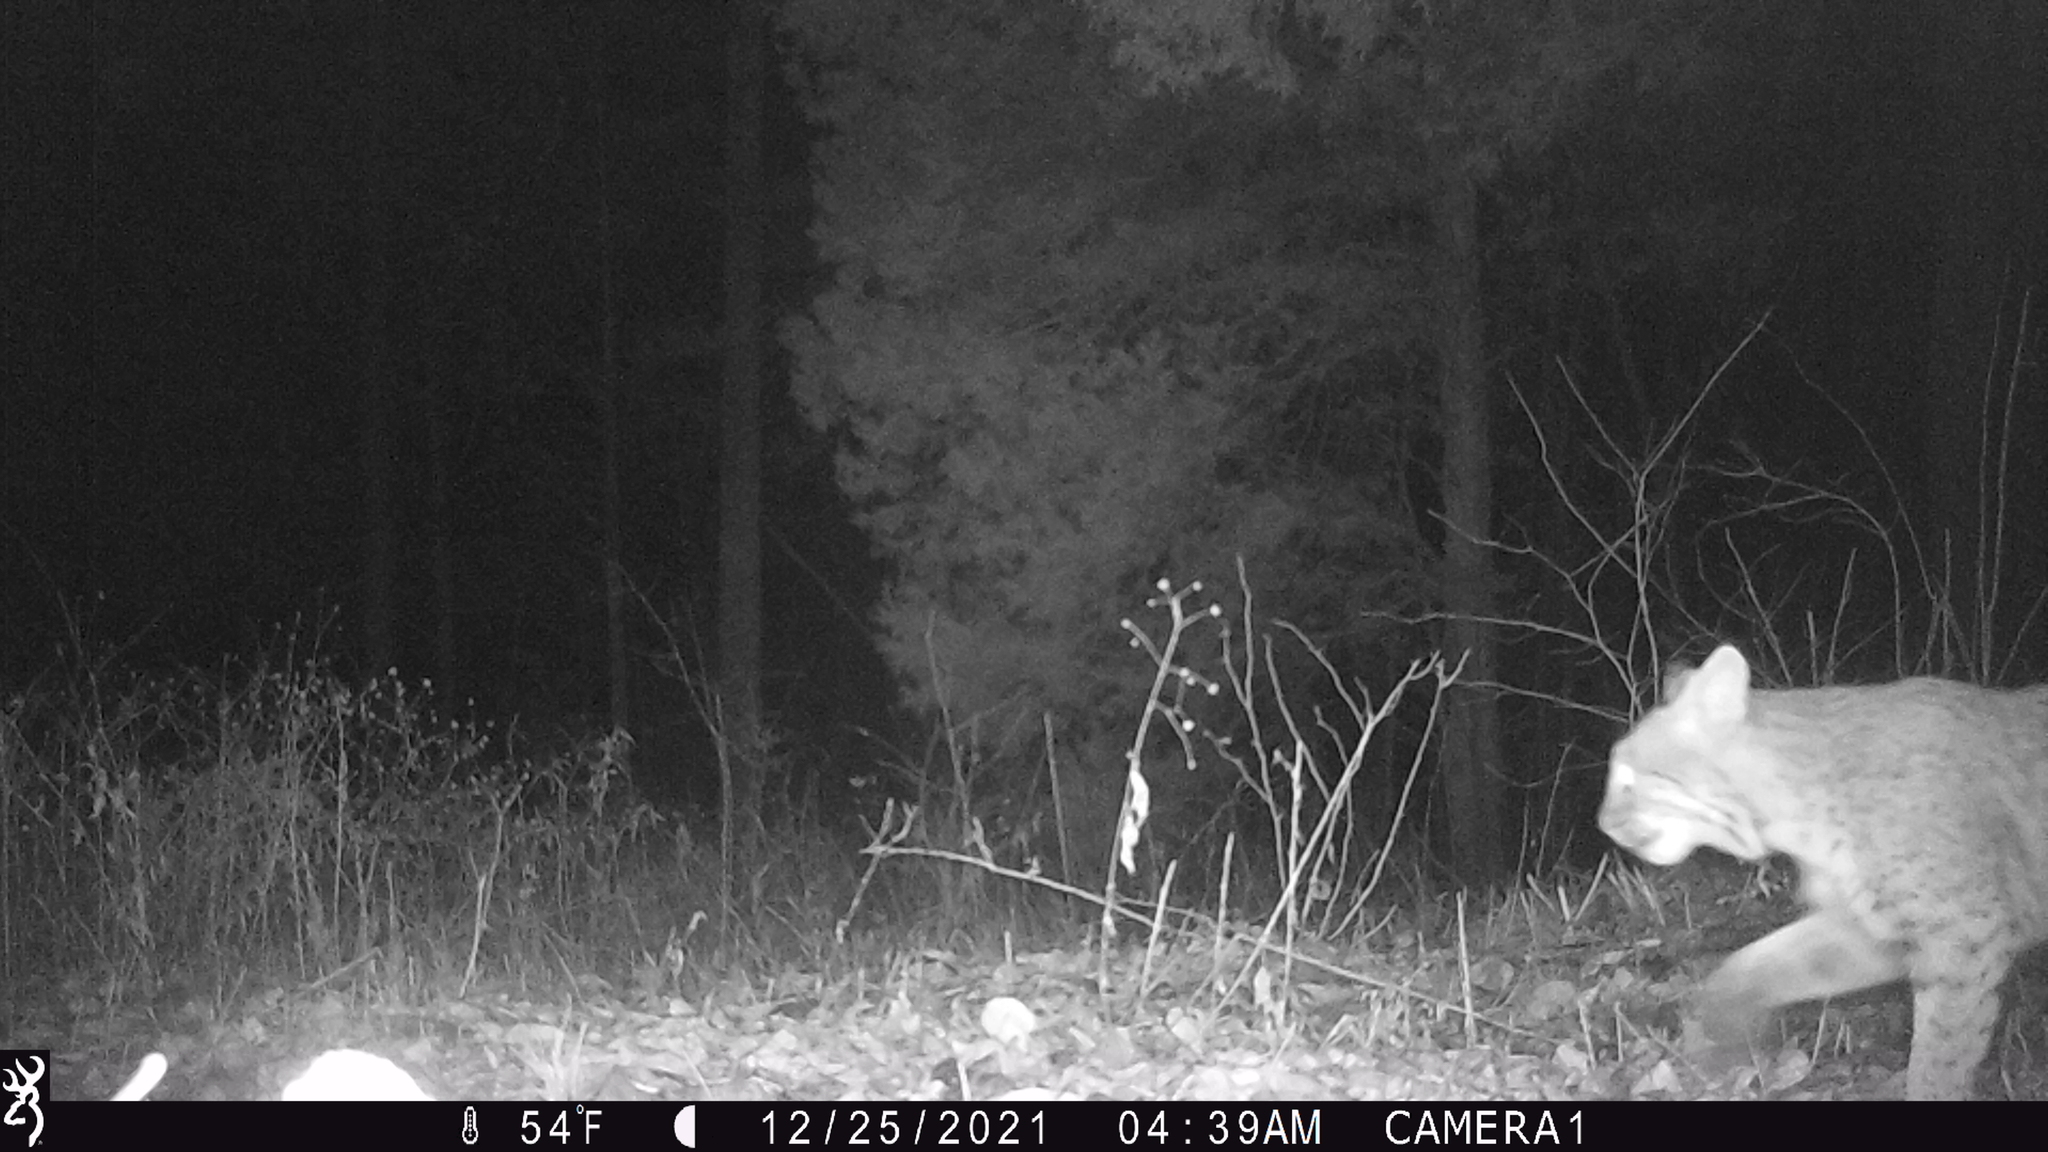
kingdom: Animalia
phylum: Chordata
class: Mammalia
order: Carnivora
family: Felidae
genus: Lynx
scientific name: Lynx rufus
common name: Bobcat
